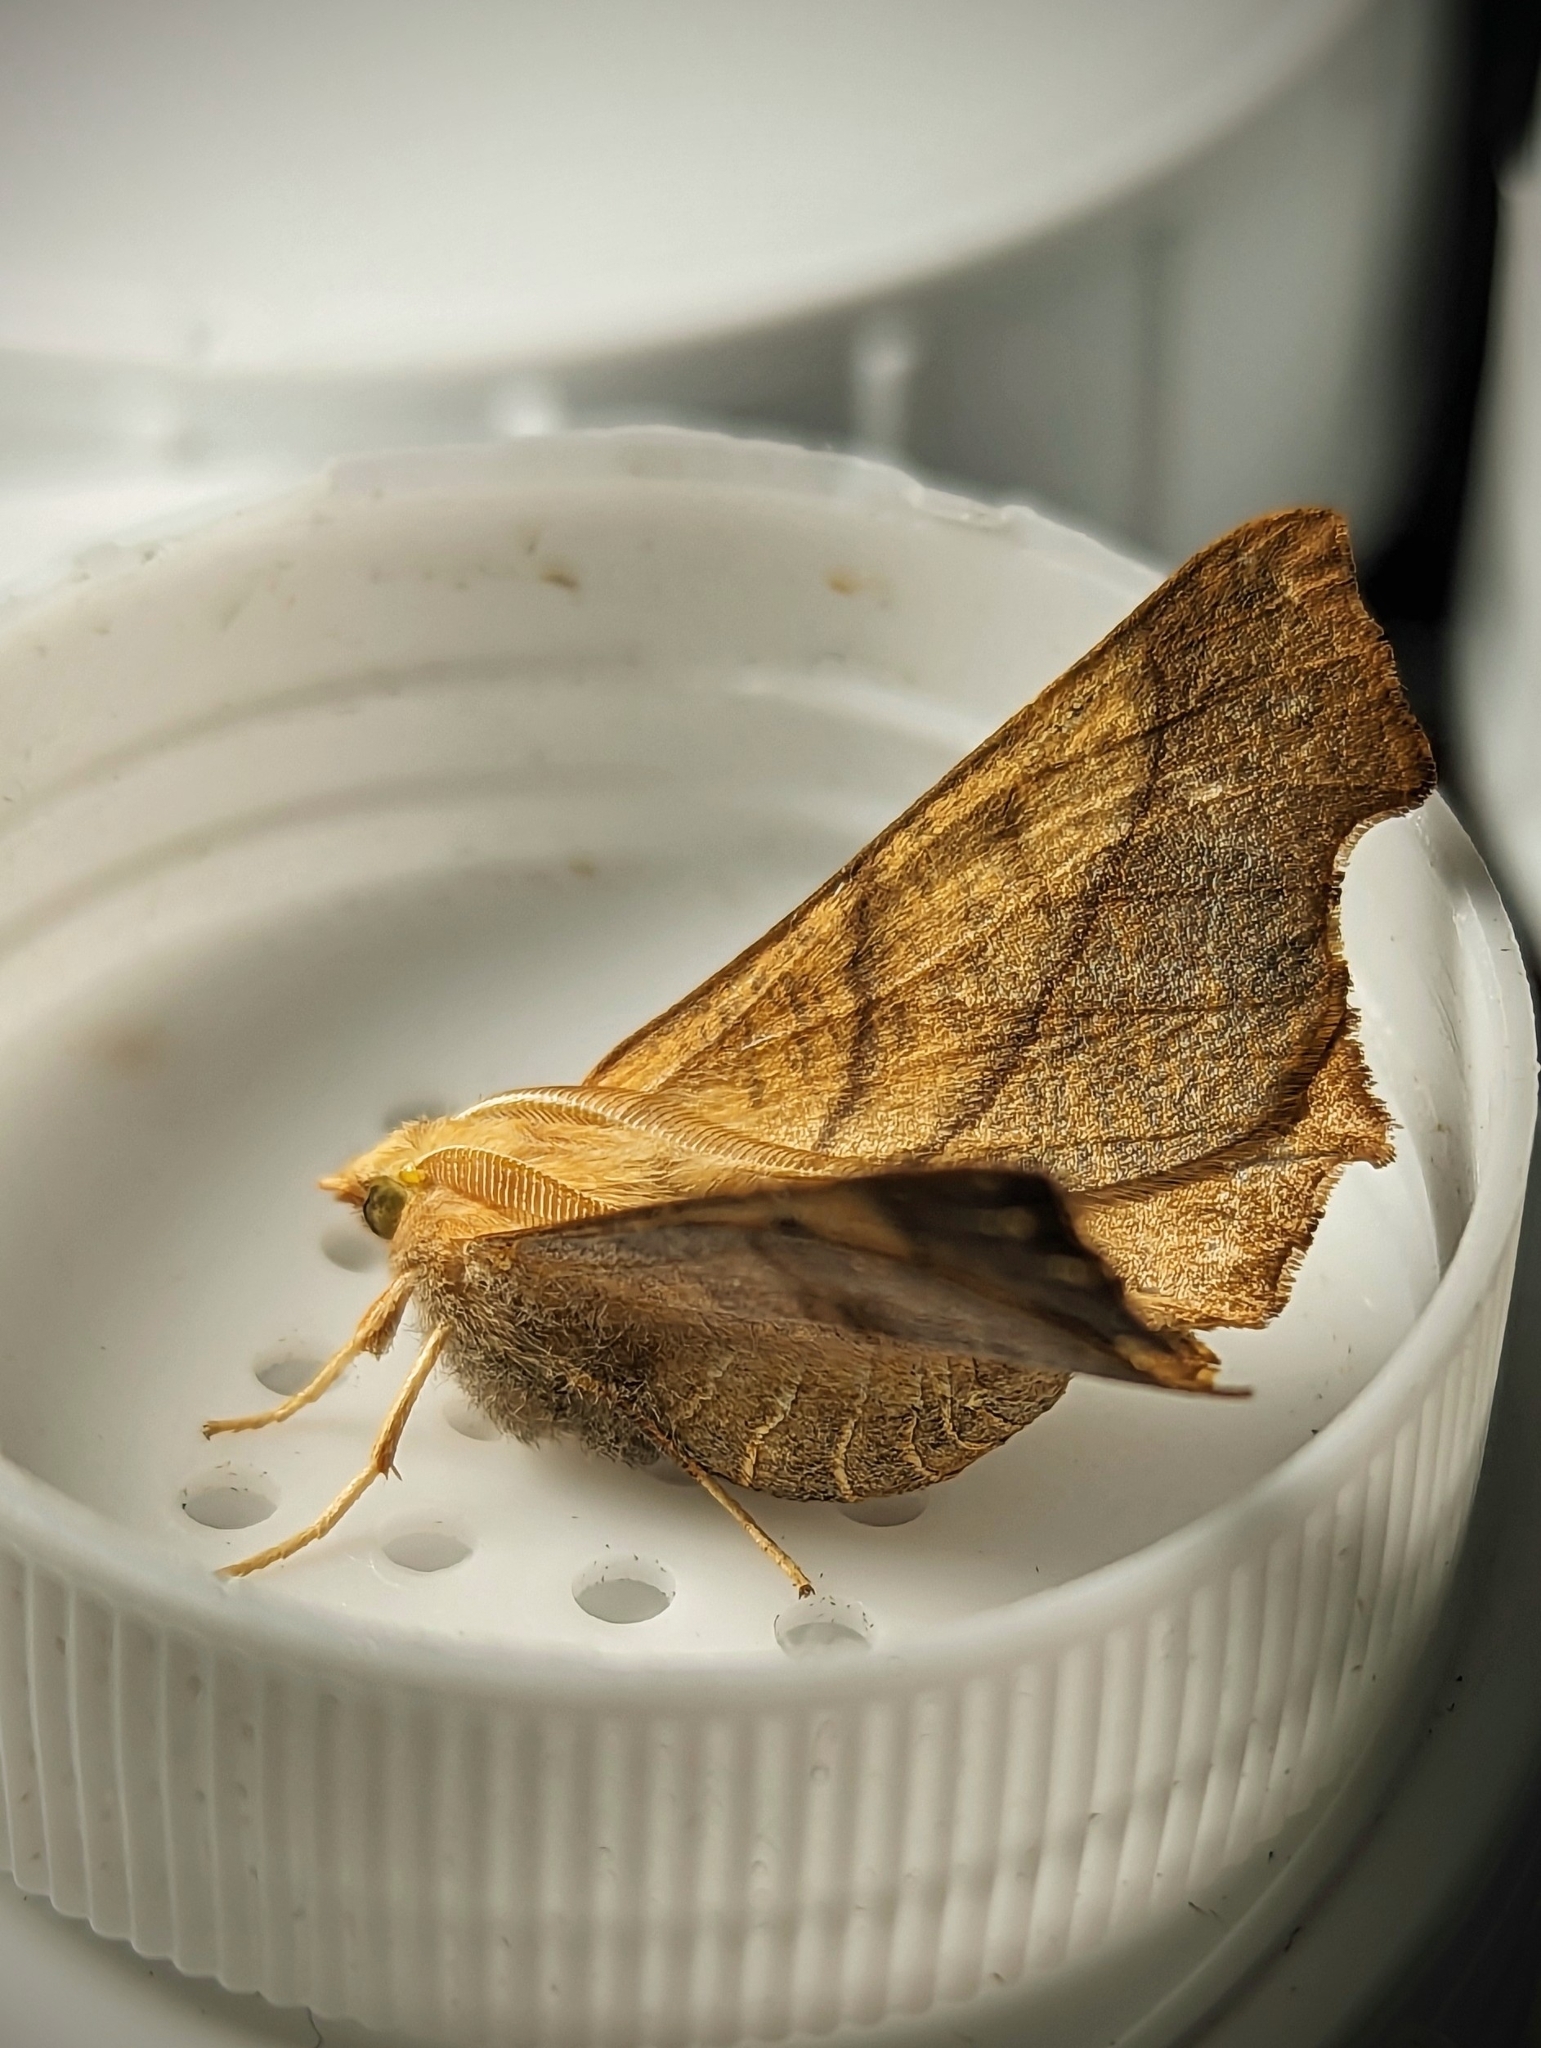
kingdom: Animalia
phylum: Arthropoda
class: Insecta
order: Lepidoptera
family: Geometridae
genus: Ennomos
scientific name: Ennomos fuscantaria
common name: Dusky thorn
